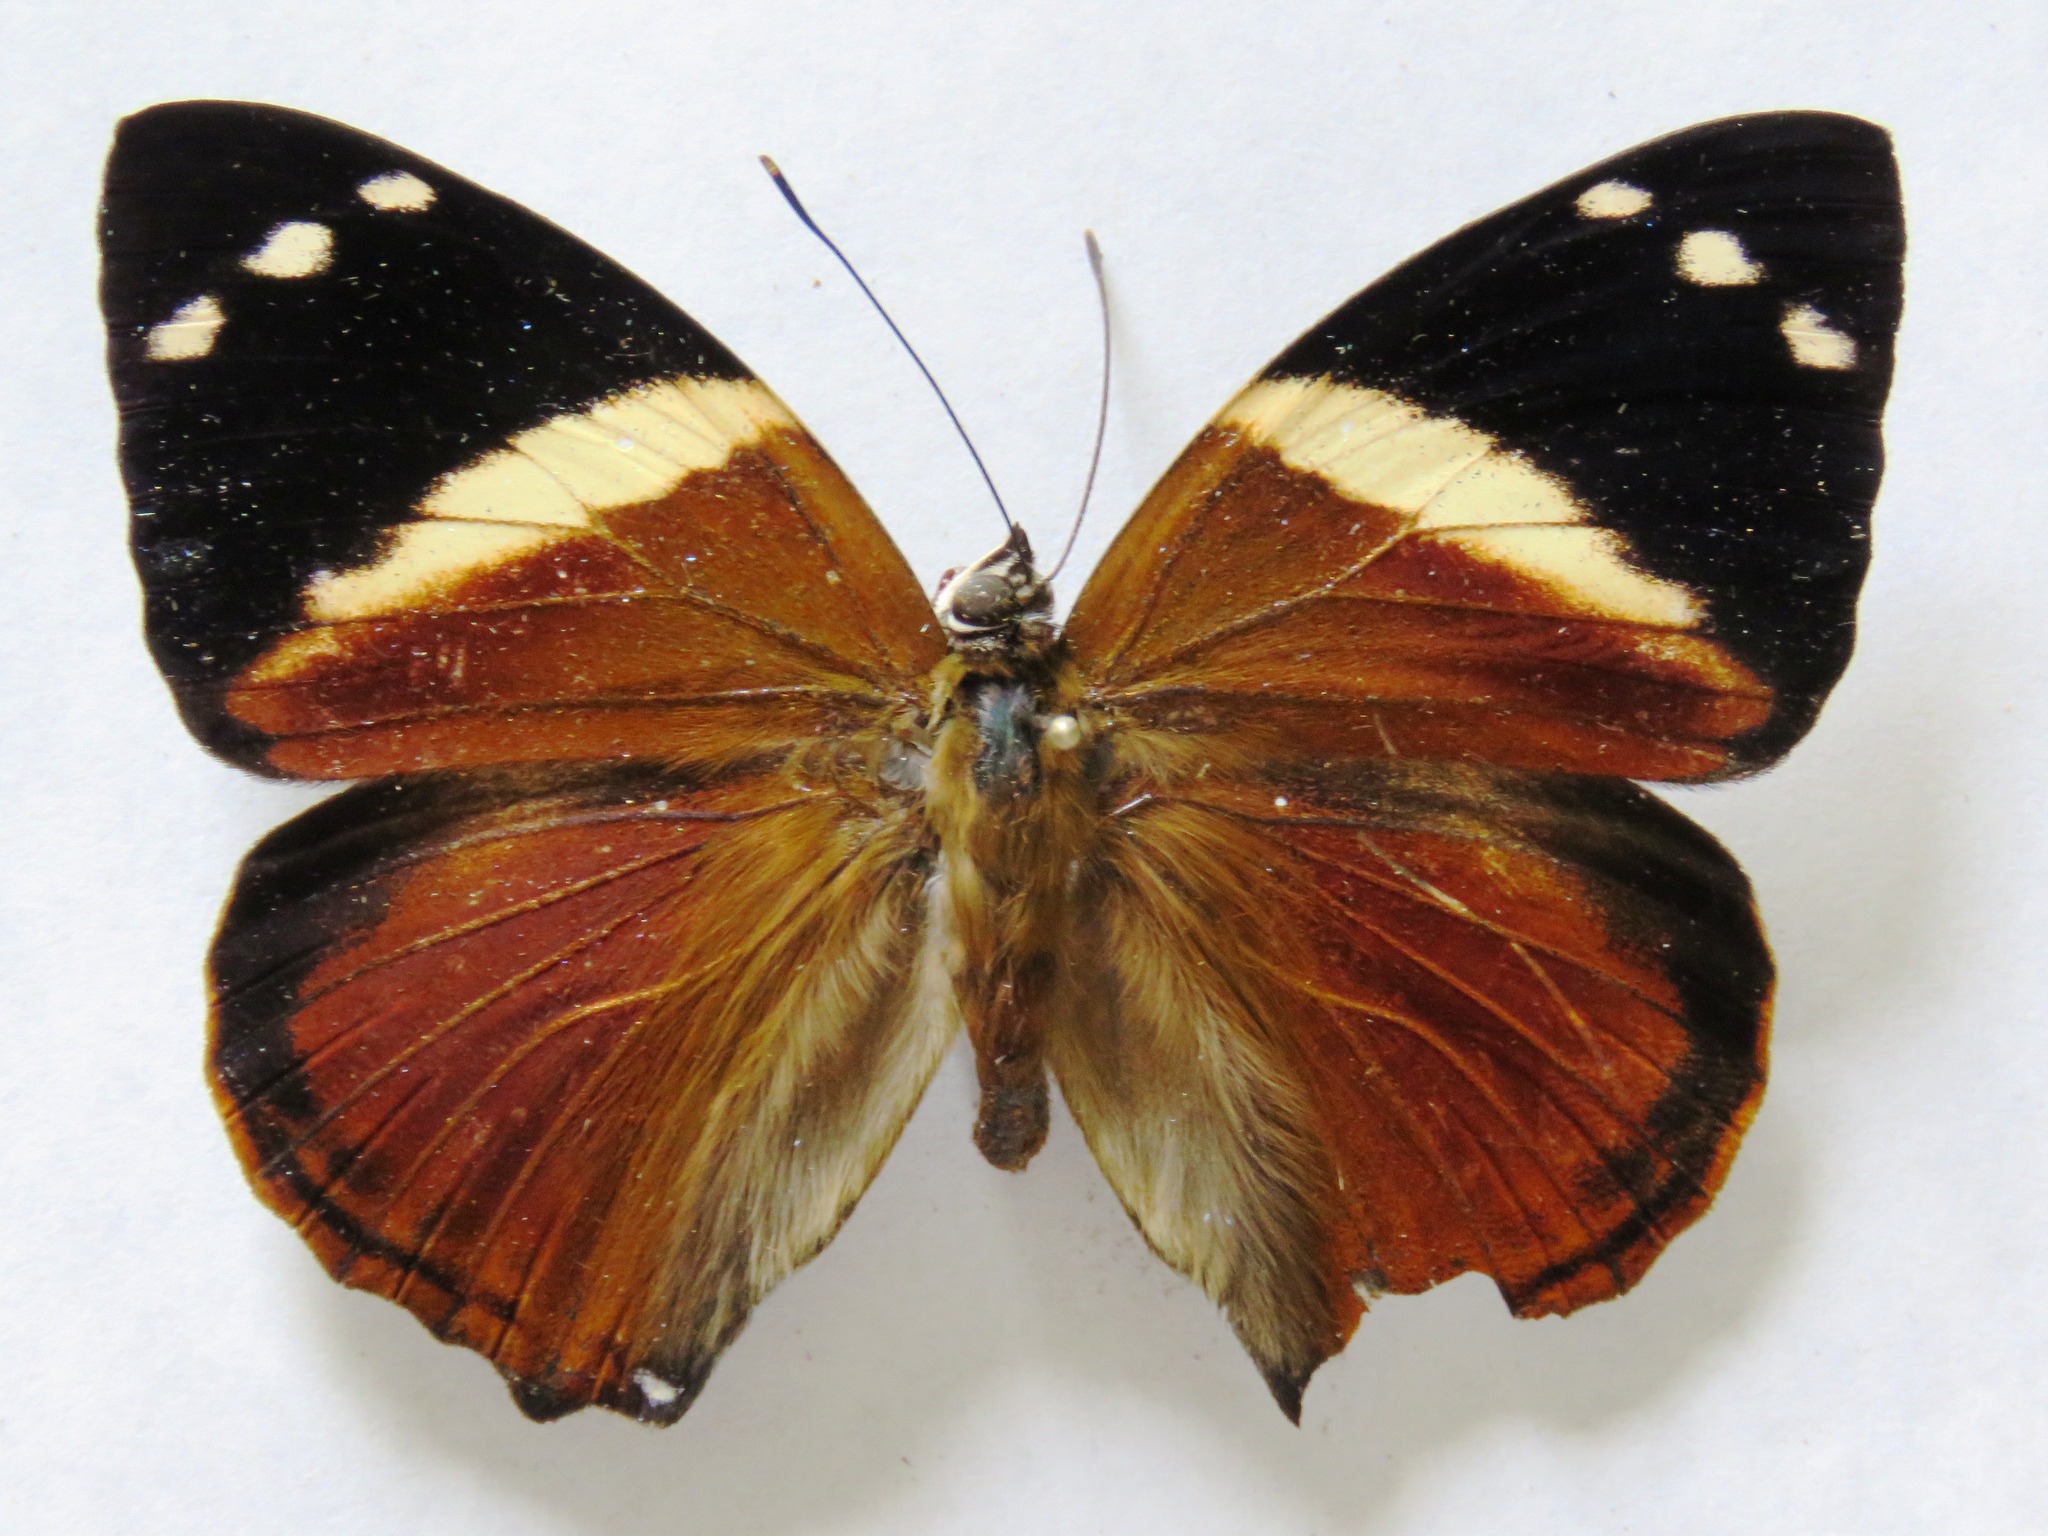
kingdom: Animalia
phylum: Arthropoda
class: Insecta
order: Lepidoptera
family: Nymphalidae
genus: Smyrna
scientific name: Smyrna blomfildia
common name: Blomfild's beauty
